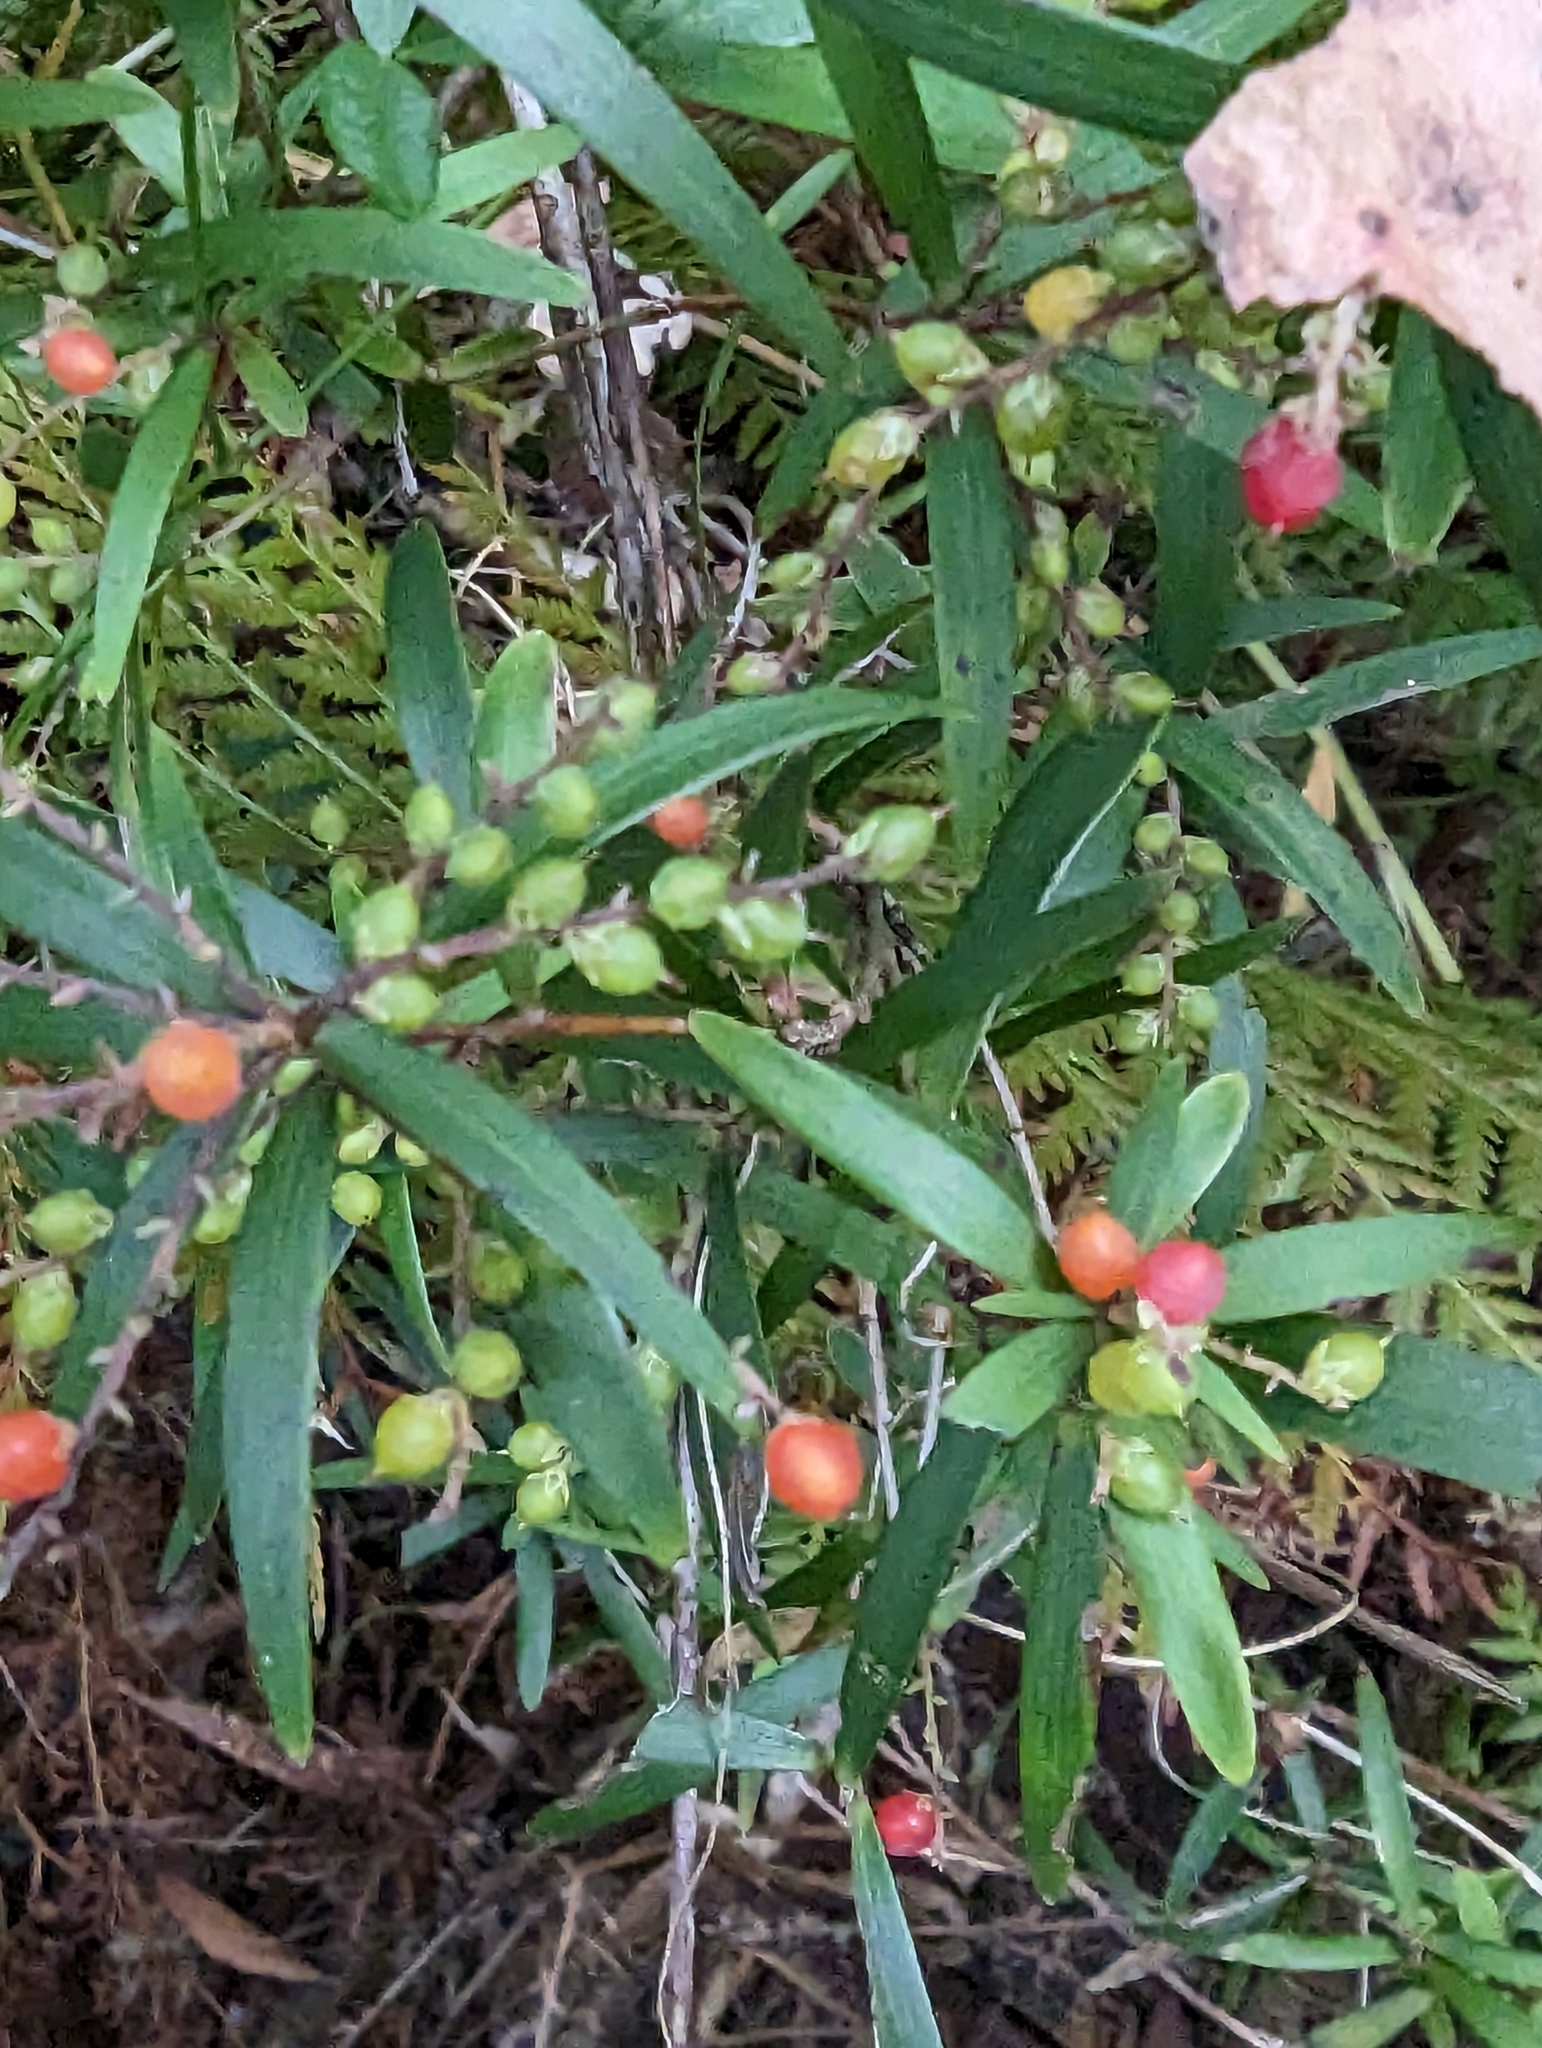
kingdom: Plantae
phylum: Tracheophyta
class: Magnoliopsida
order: Ericales
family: Ericaceae
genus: Leucopogon
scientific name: Leucopogon lanceolatus
